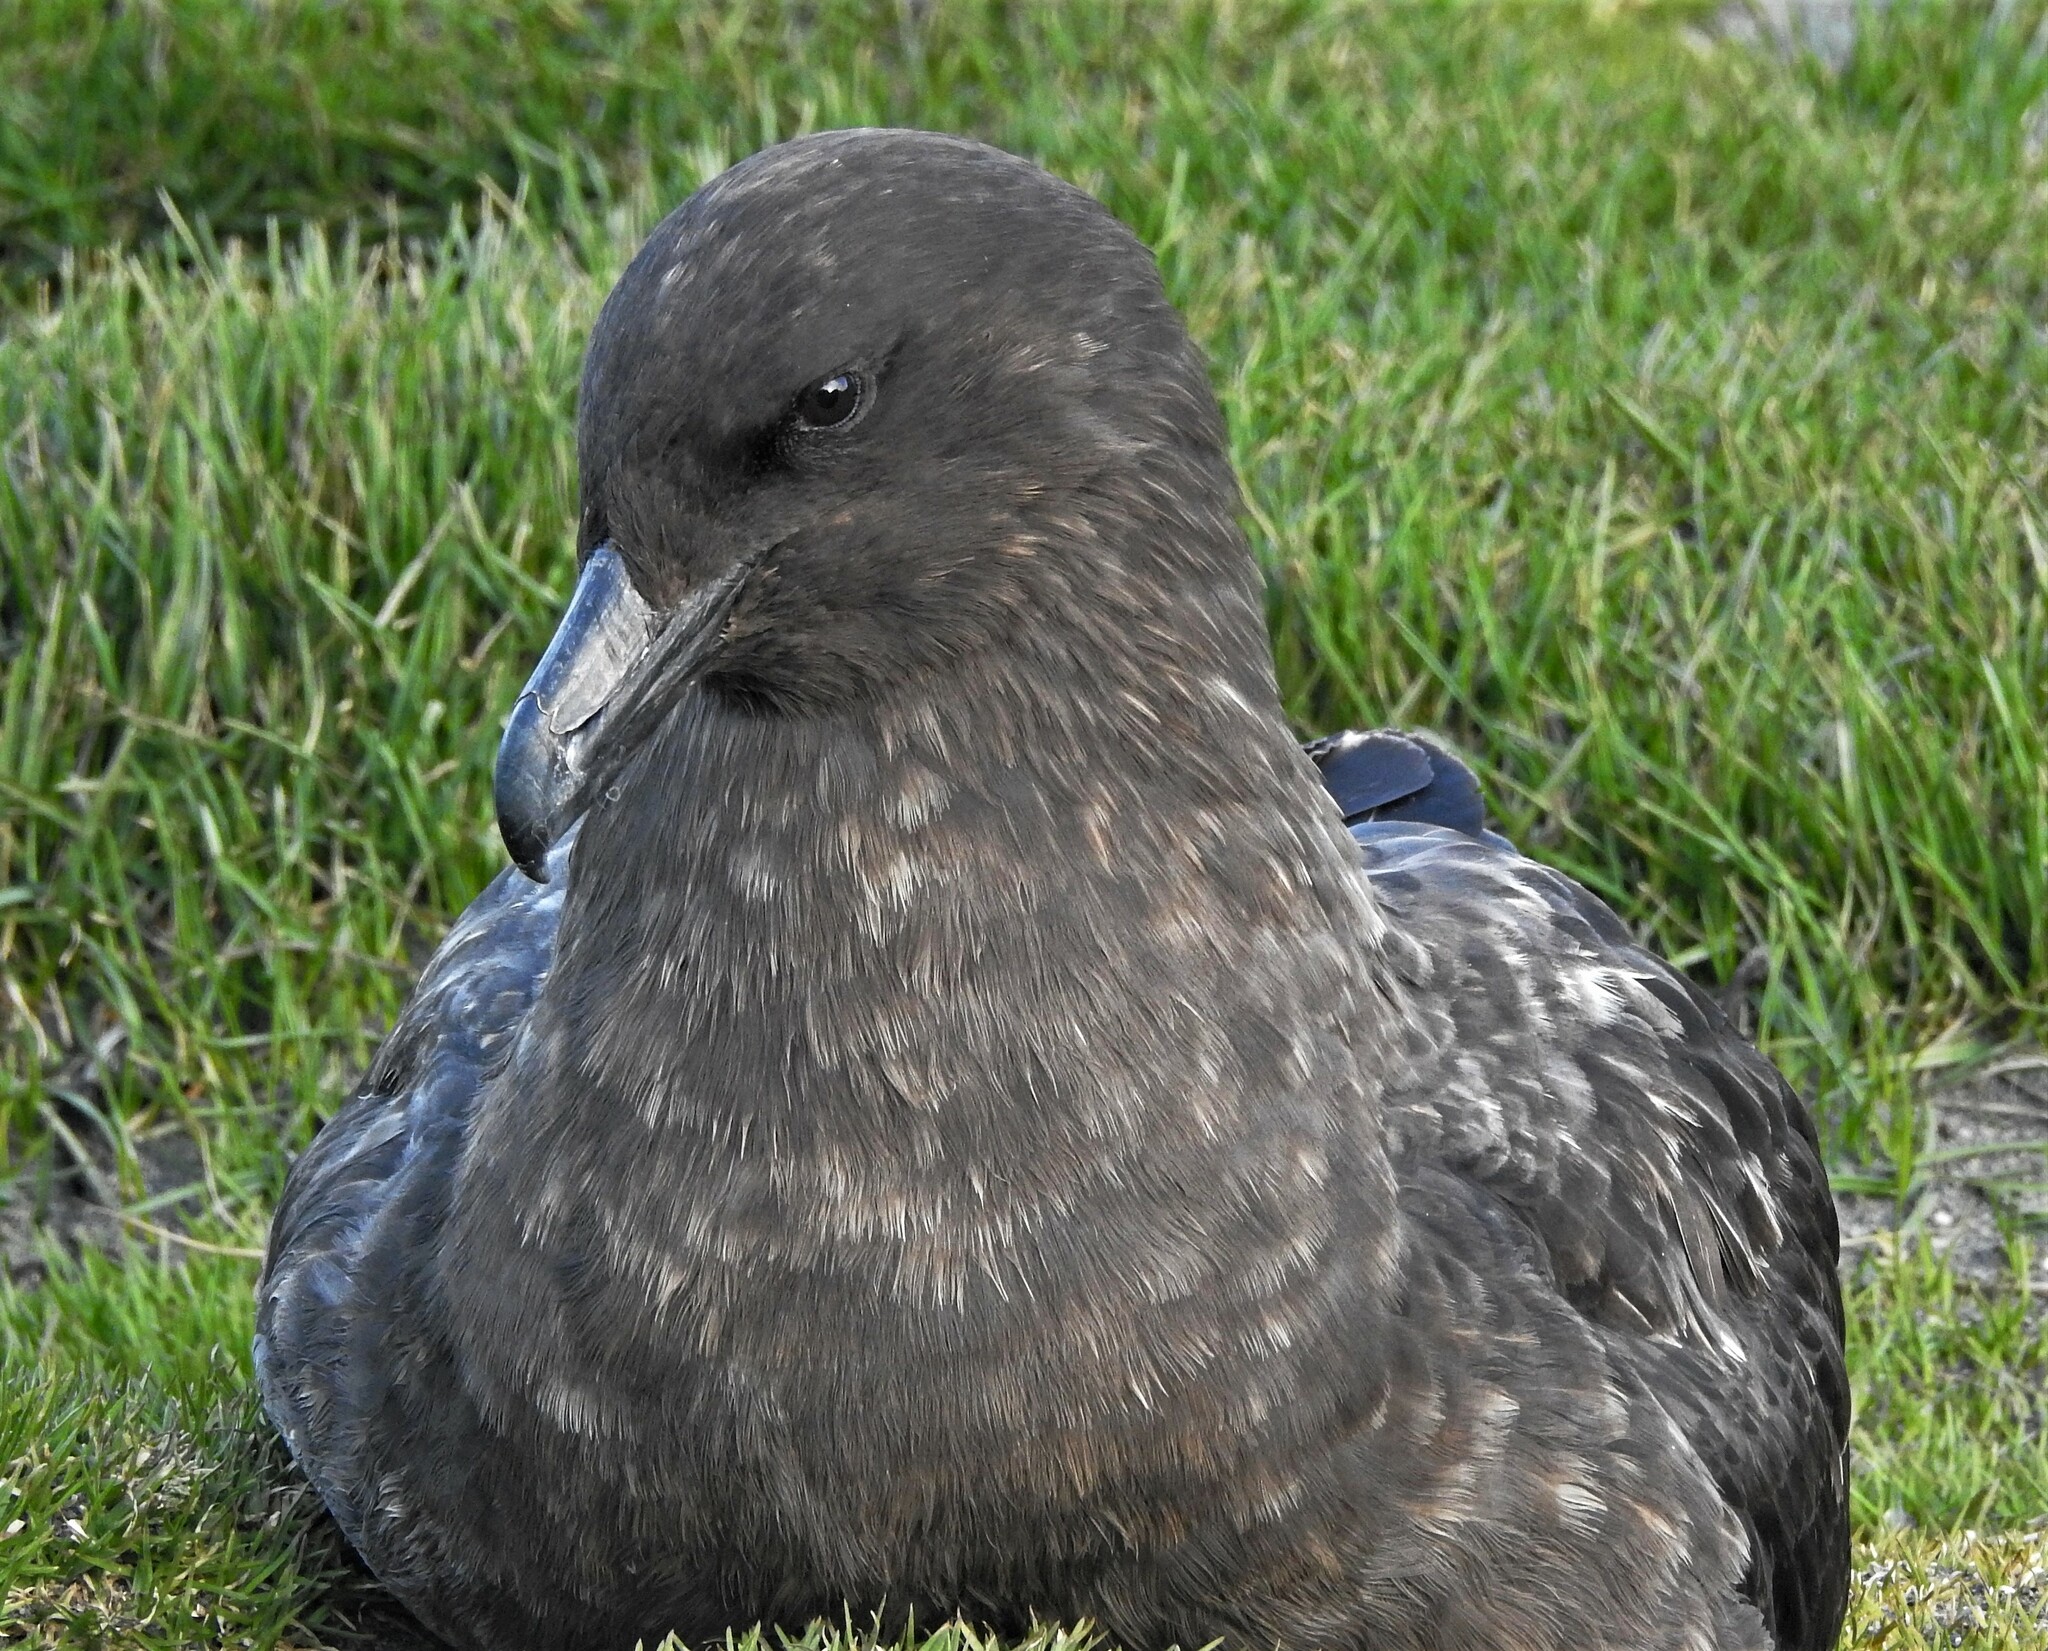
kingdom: Animalia
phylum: Chordata
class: Aves
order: Charadriiformes
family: Stercorariidae
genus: Stercorarius
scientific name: Stercorarius antarcticus
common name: Brown skua
